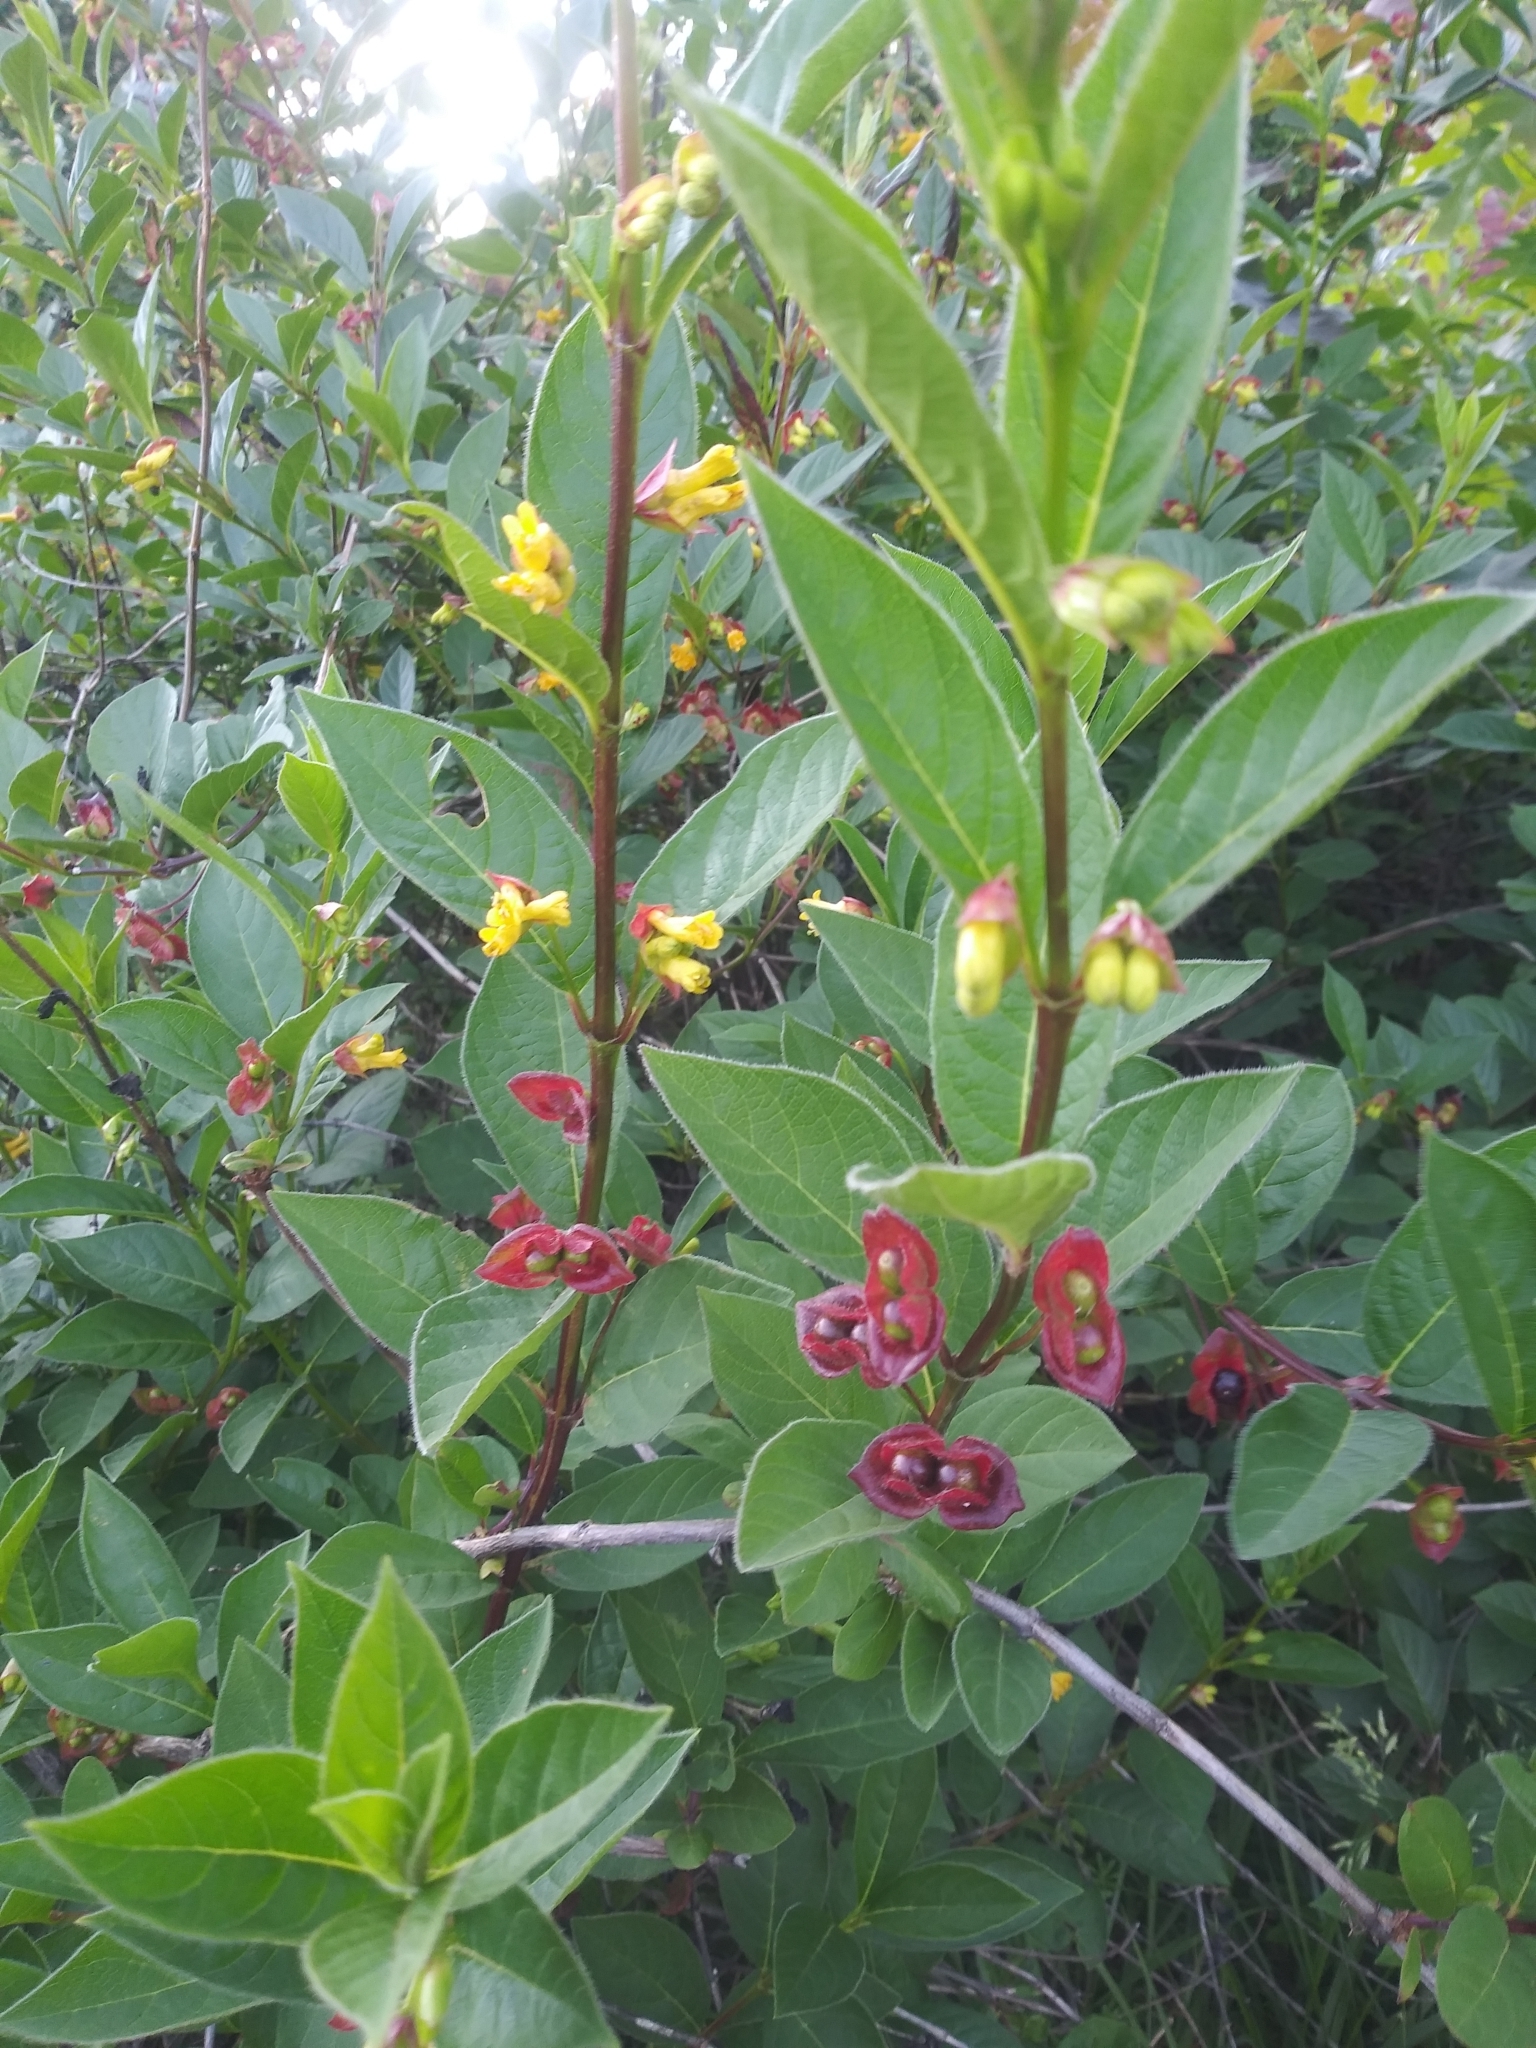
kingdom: Plantae
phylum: Tracheophyta
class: Magnoliopsida
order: Dipsacales
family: Caprifoliaceae
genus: Lonicera
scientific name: Lonicera involucrata
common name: Californian honeysuckle
